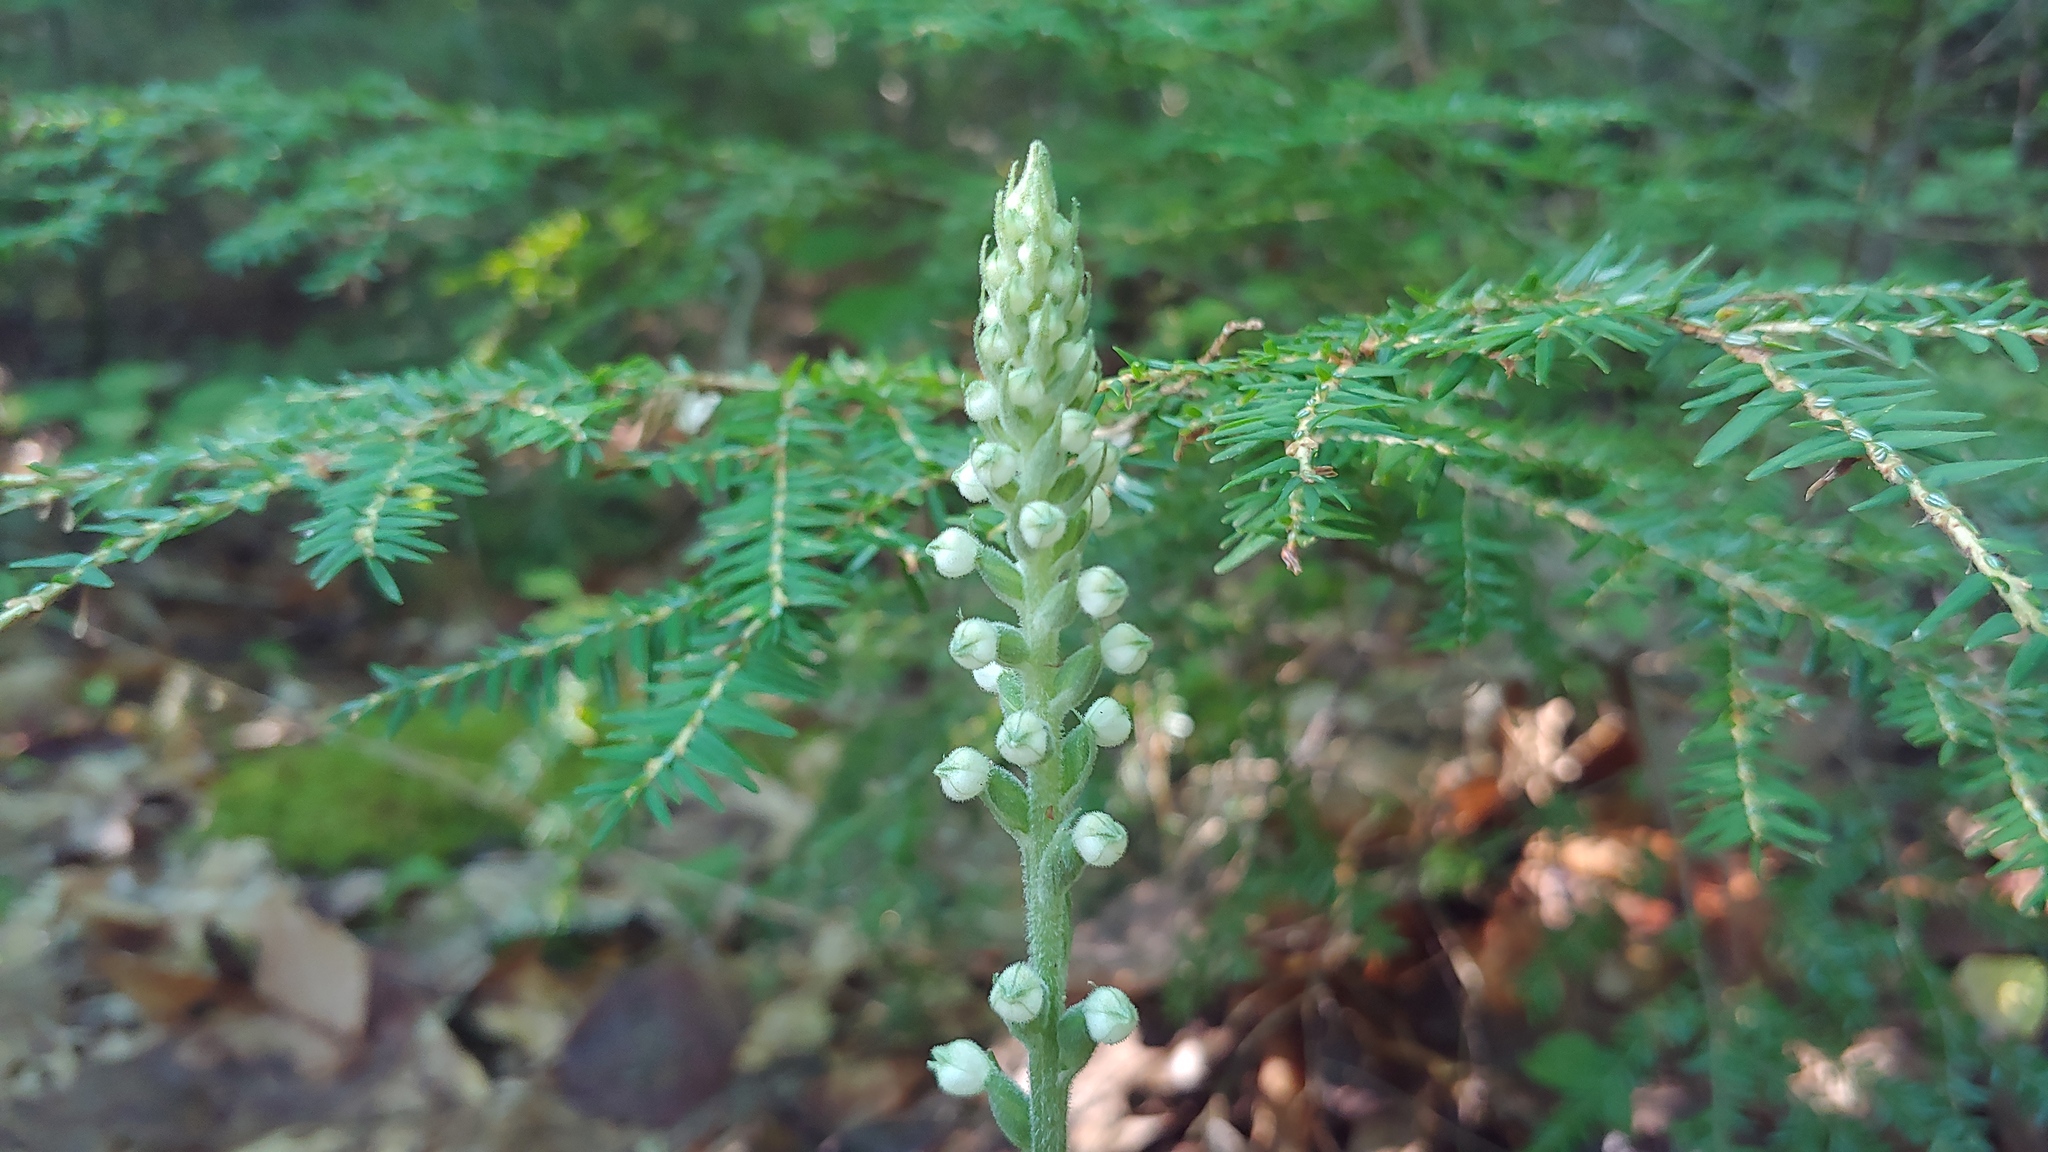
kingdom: Plantae
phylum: Tracheophyta
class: Liliopsida
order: Asparagales
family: Orchidaceae
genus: Goodyera
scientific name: Goodyera pubescens
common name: Downy rattlesnake-plantain
